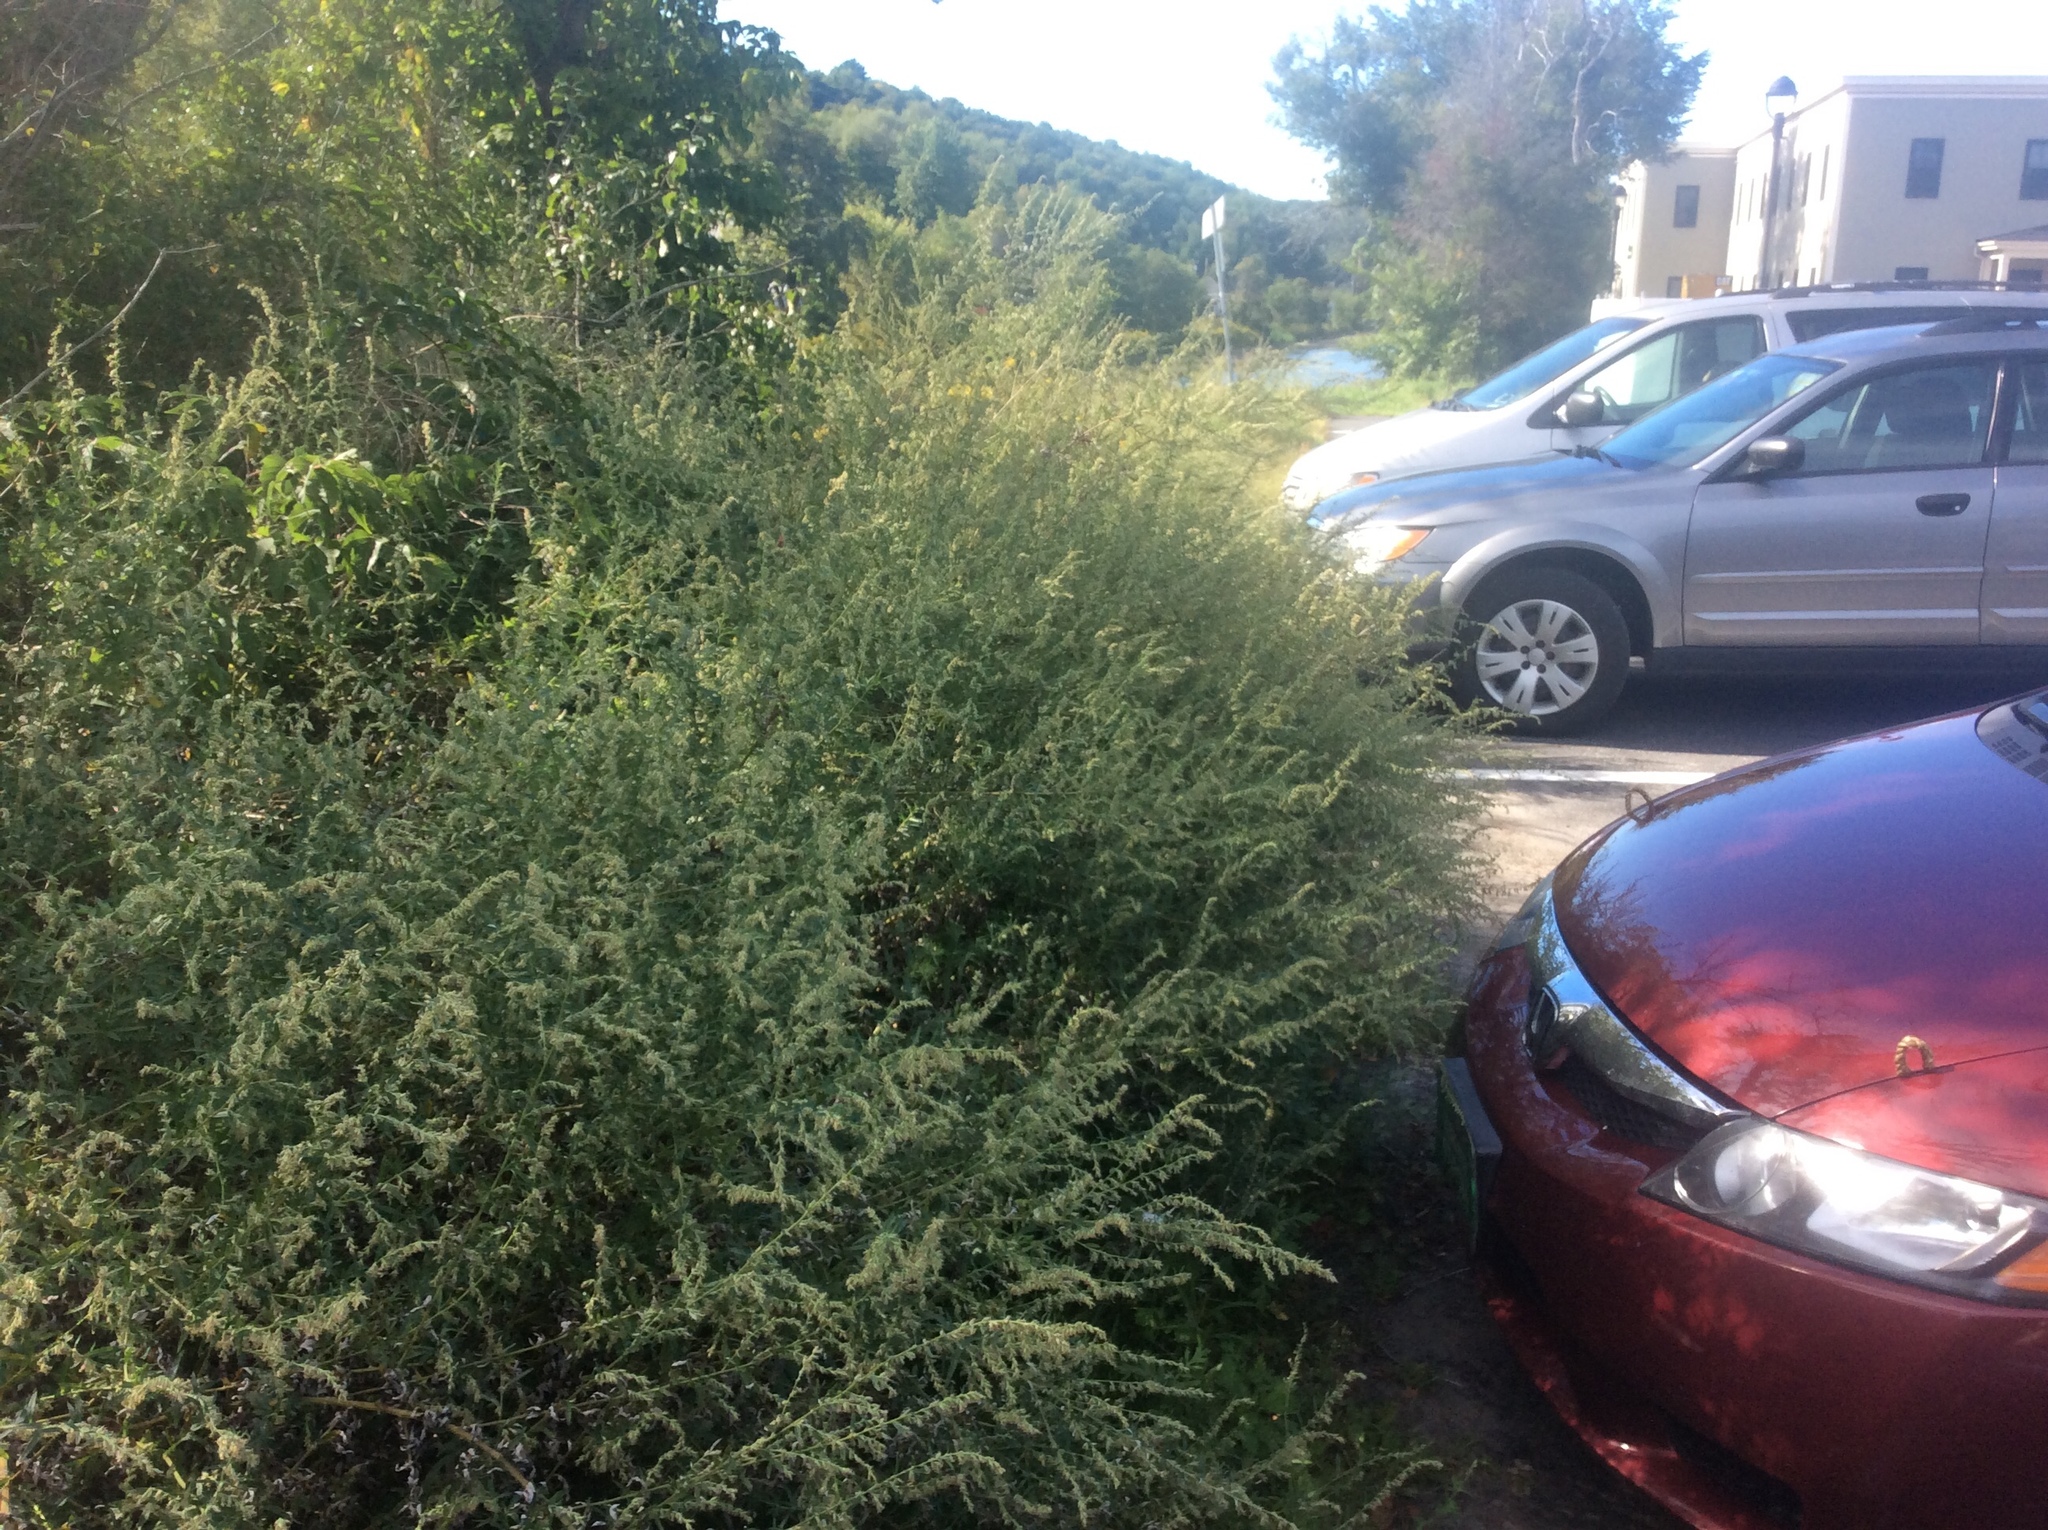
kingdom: Plantae
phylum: Tracheophyta
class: Magnoliopsida
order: Asterales
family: Asteraceae
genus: Artemisia
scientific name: Artemisia vulgaris
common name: Mugwort
